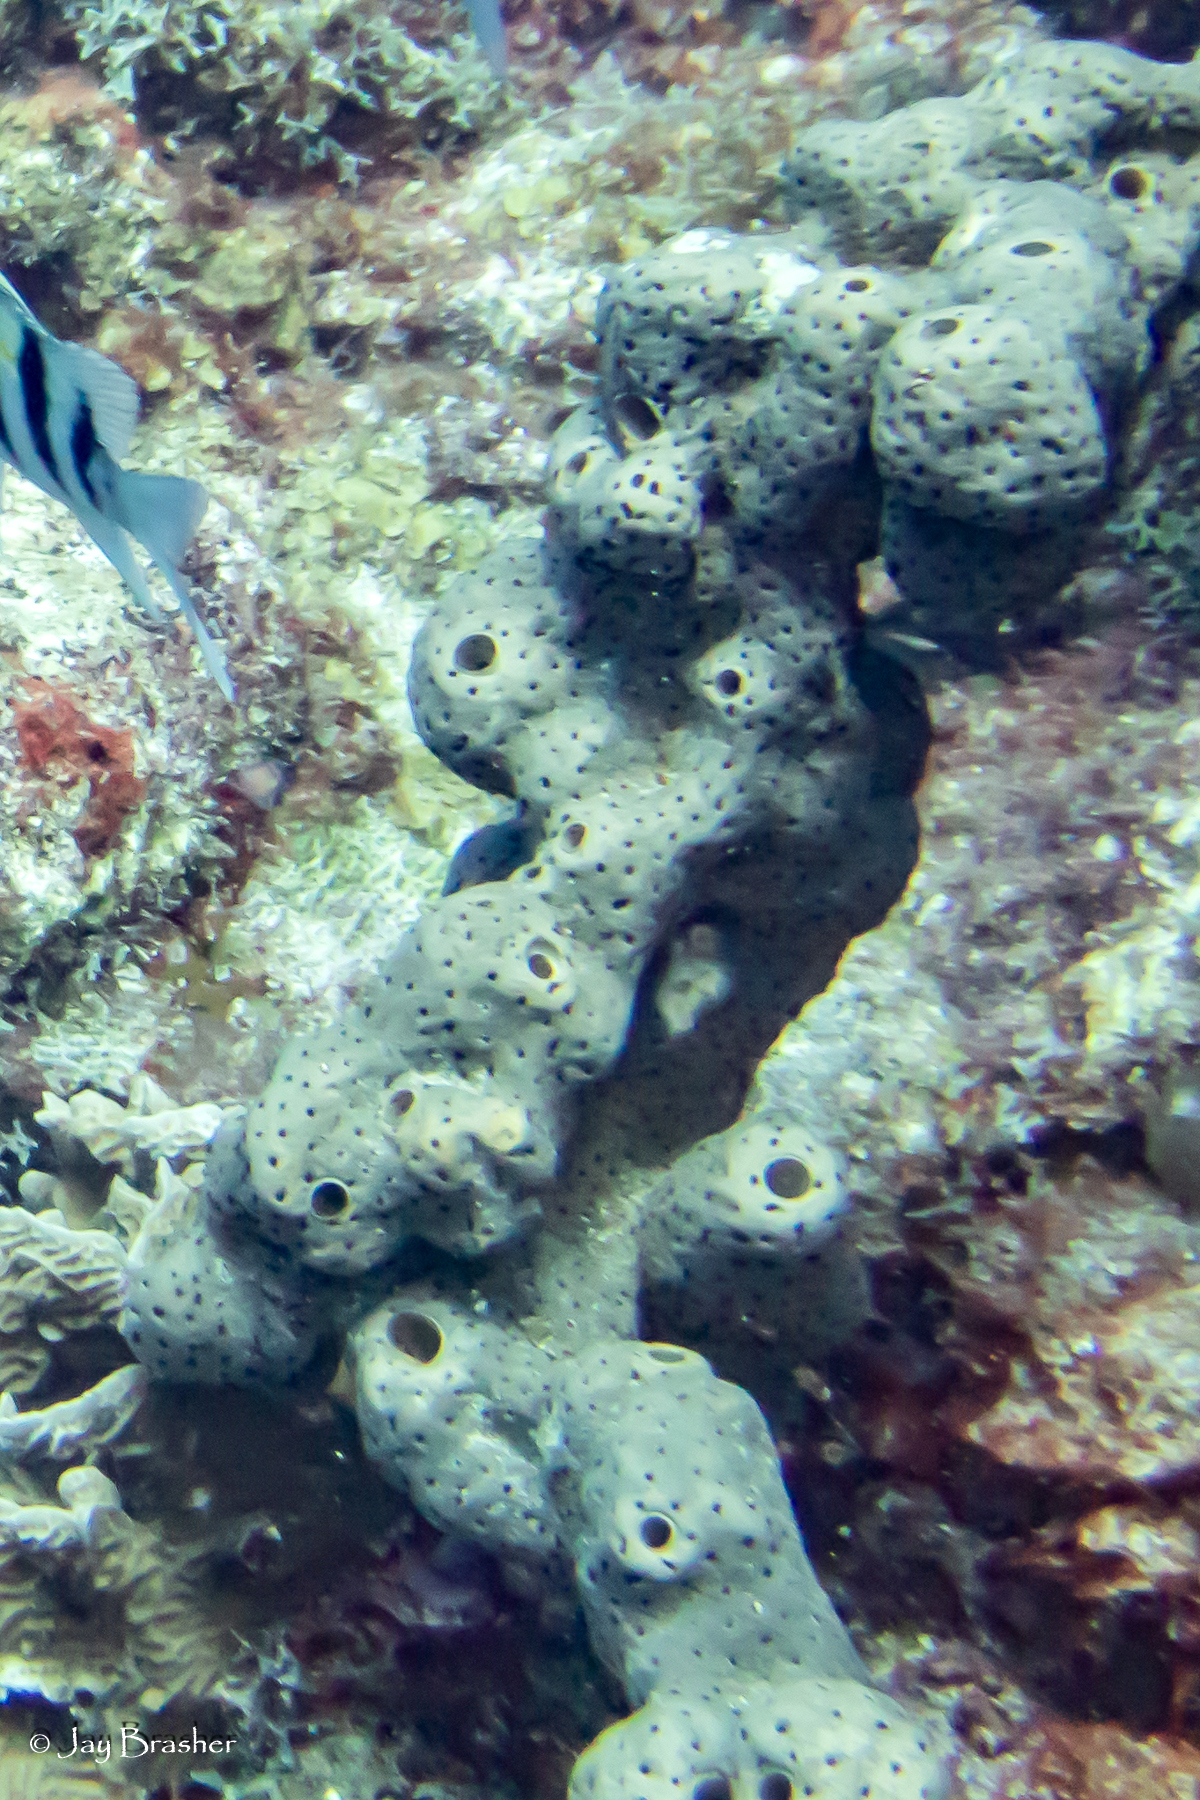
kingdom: Animalia
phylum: Porifera
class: Demospongiae
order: Agelasida
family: Agelasidae
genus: Agelas
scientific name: Agelas conifera
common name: Brown tube sponge
